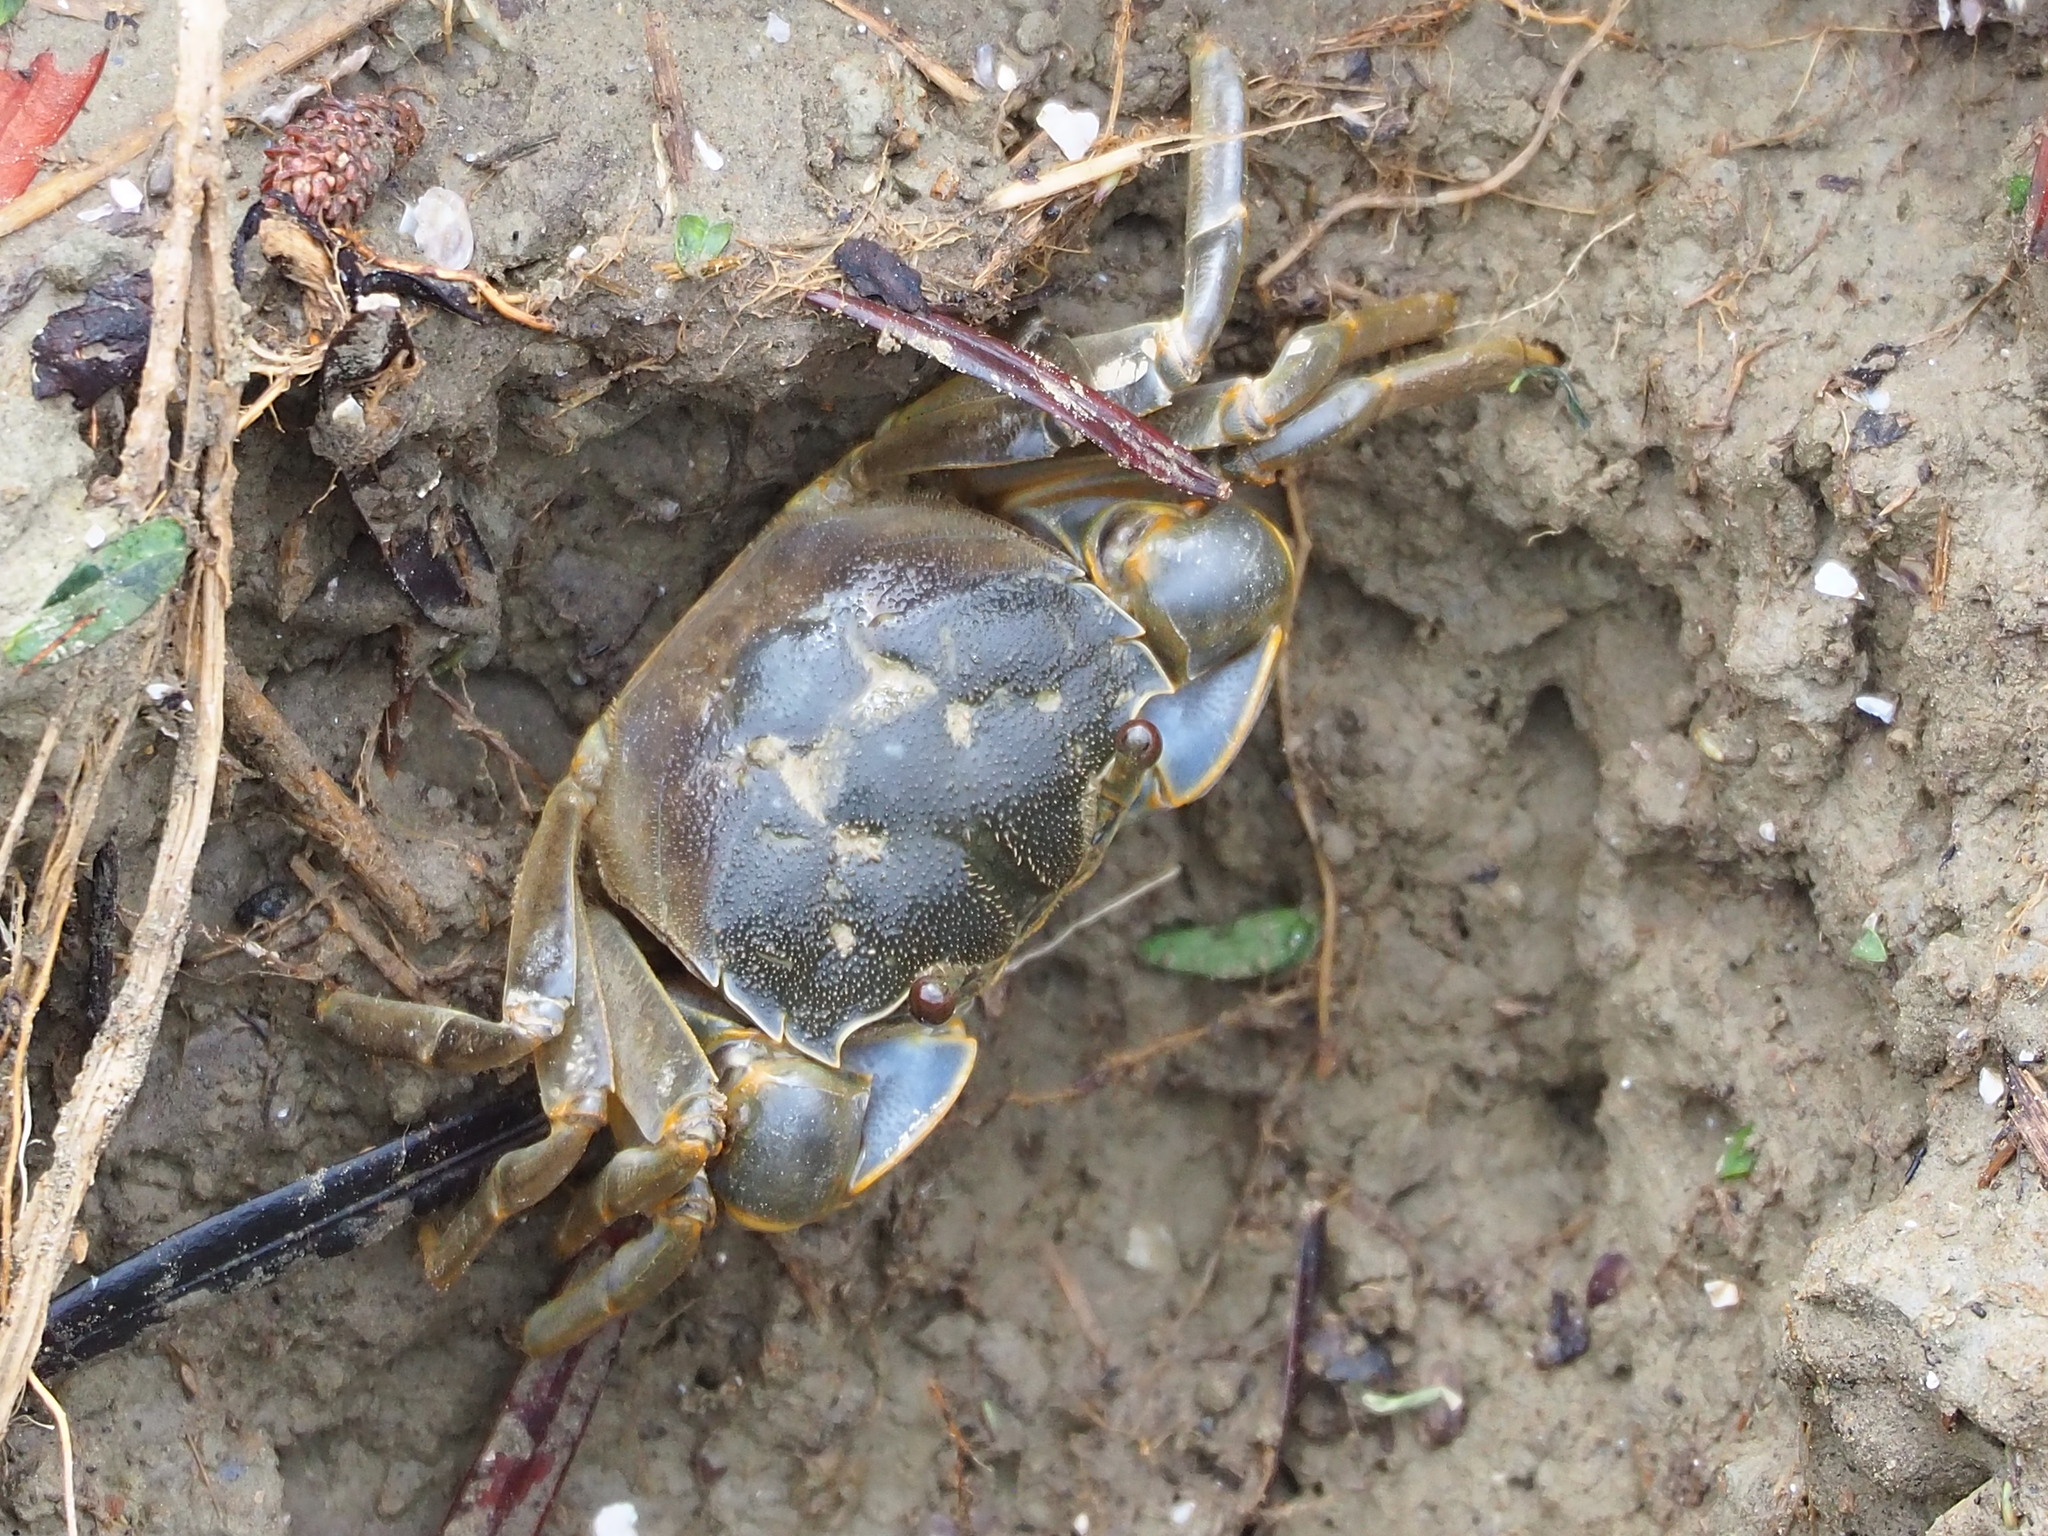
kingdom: Animalia
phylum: Arthropoda
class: Malacostraca
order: Decapoda
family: Varunidae
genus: Helice
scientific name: Helice formosensis
